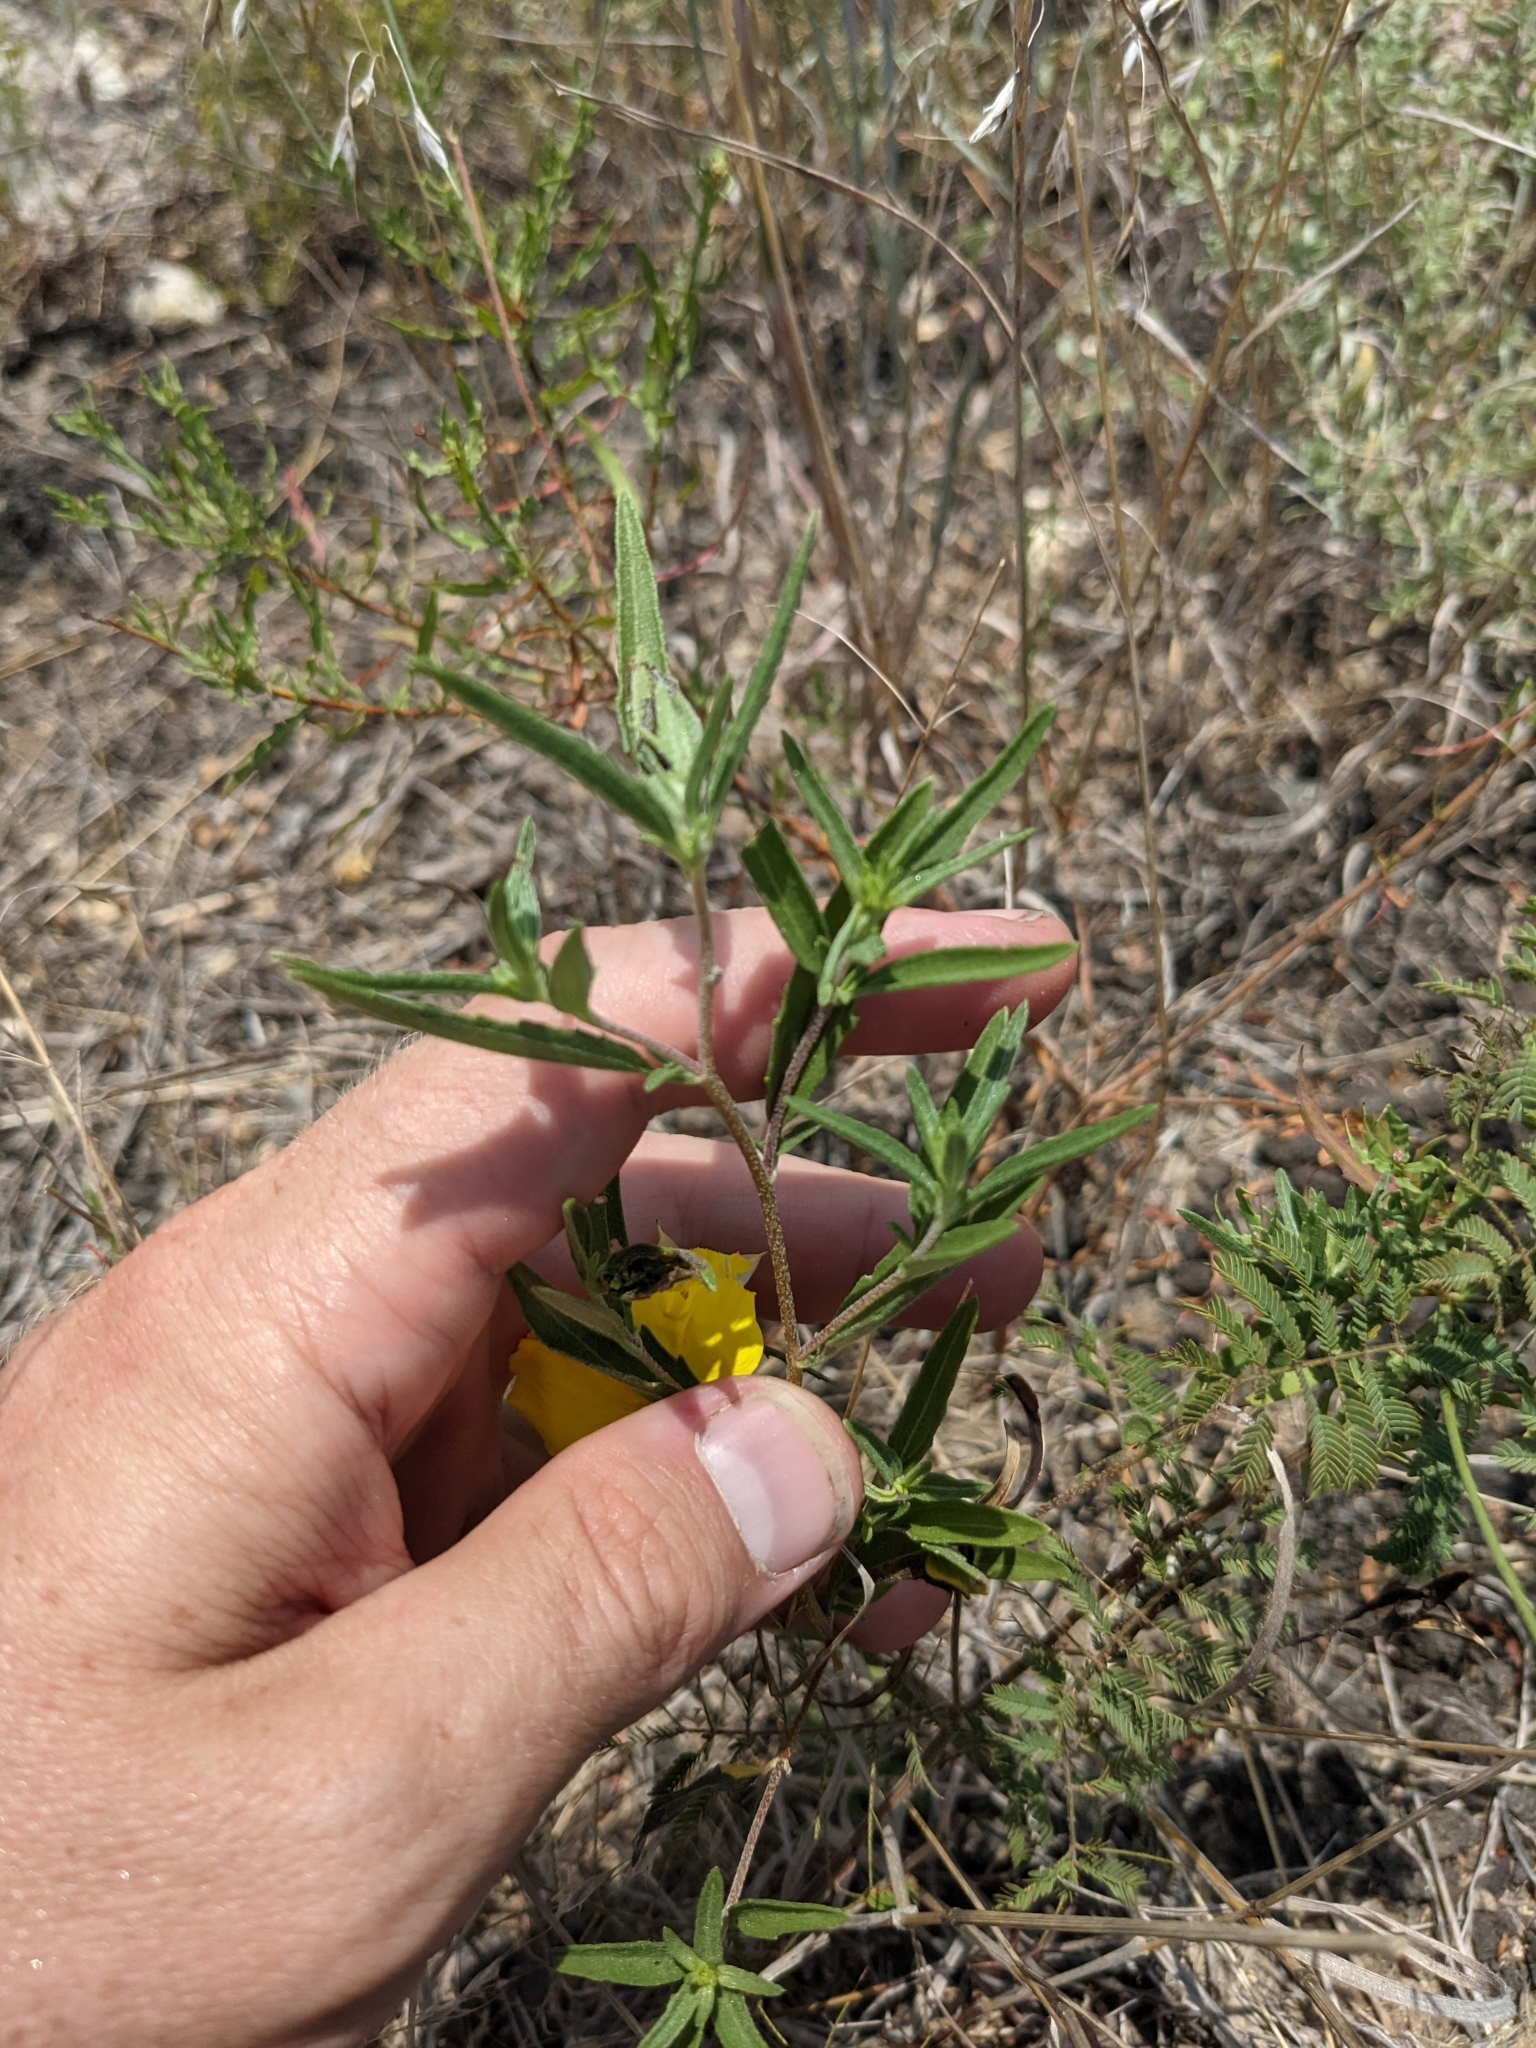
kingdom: Plantae
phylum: Tracheophyta
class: Magnoliopsida
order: Asterales
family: Asteraceae
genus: Iva
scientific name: Iva asperifolia
